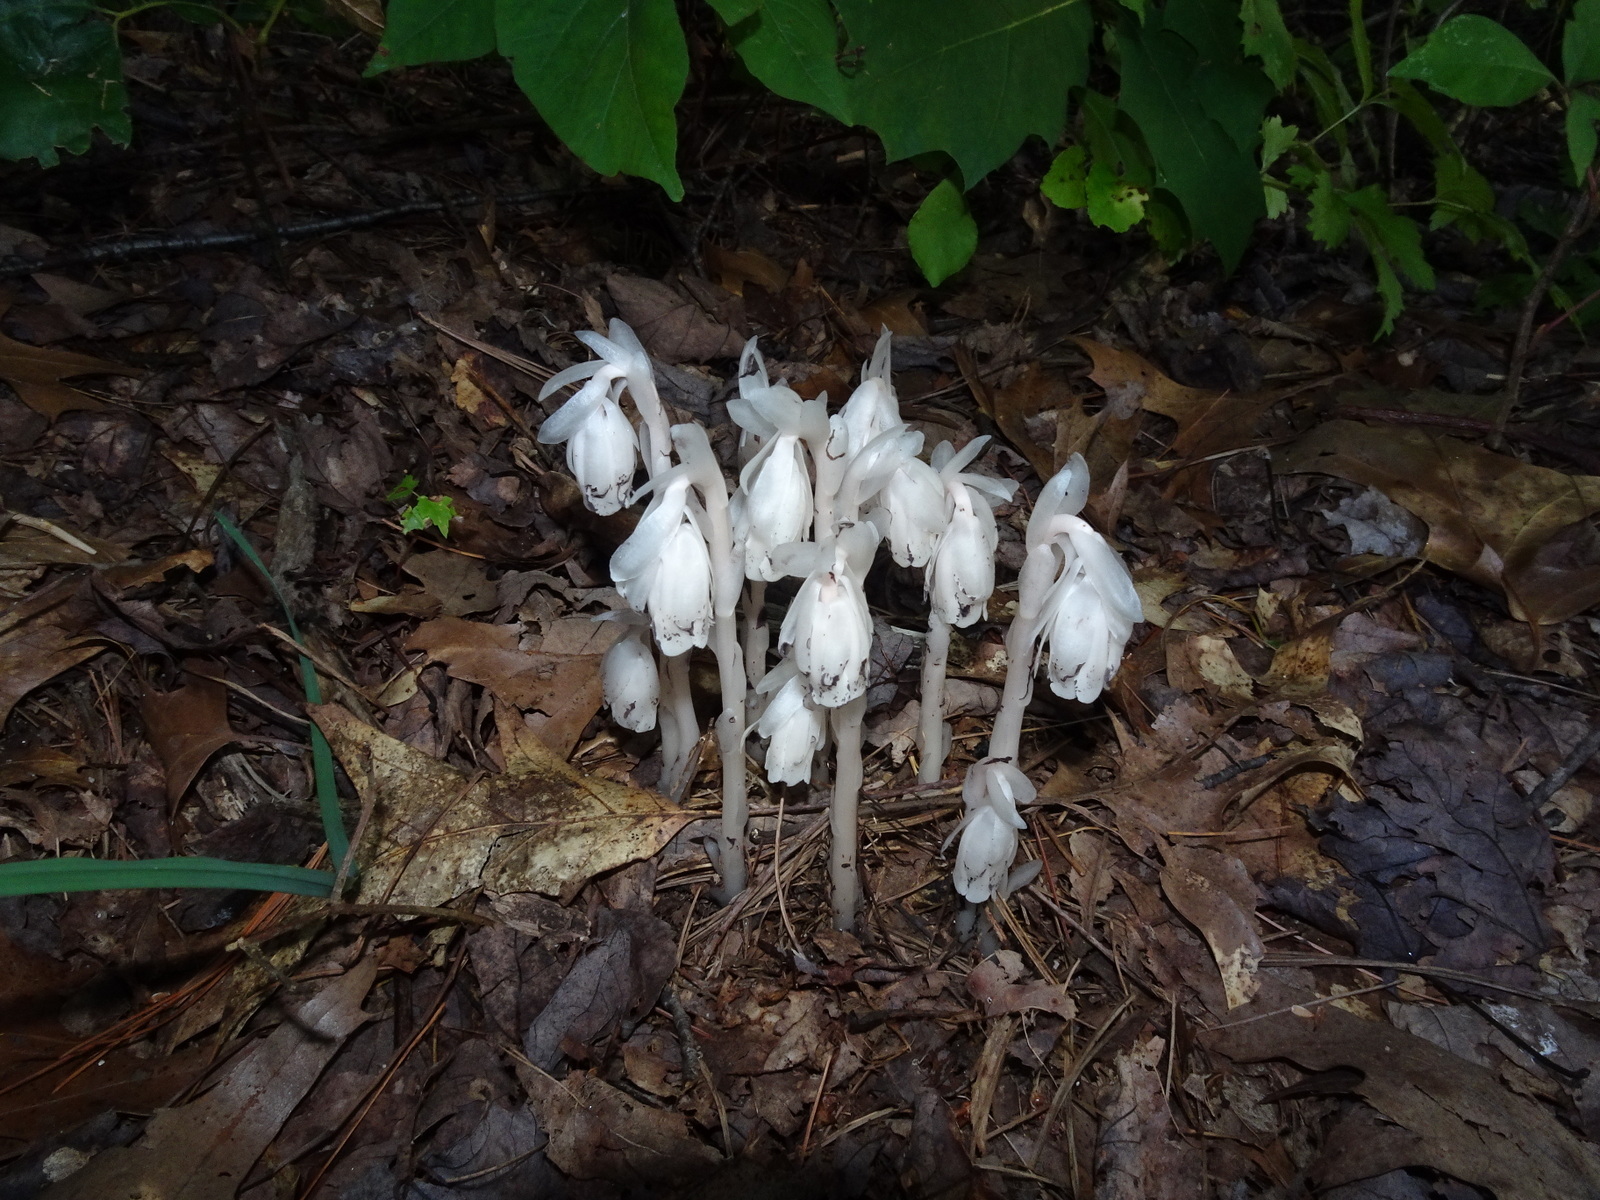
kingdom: Plantae
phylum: Tracheophyta
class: Magnoliopsida
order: Ericales
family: Ericaceae
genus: Monotropa
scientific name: Monotropa uniflora
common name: Convulsion root
